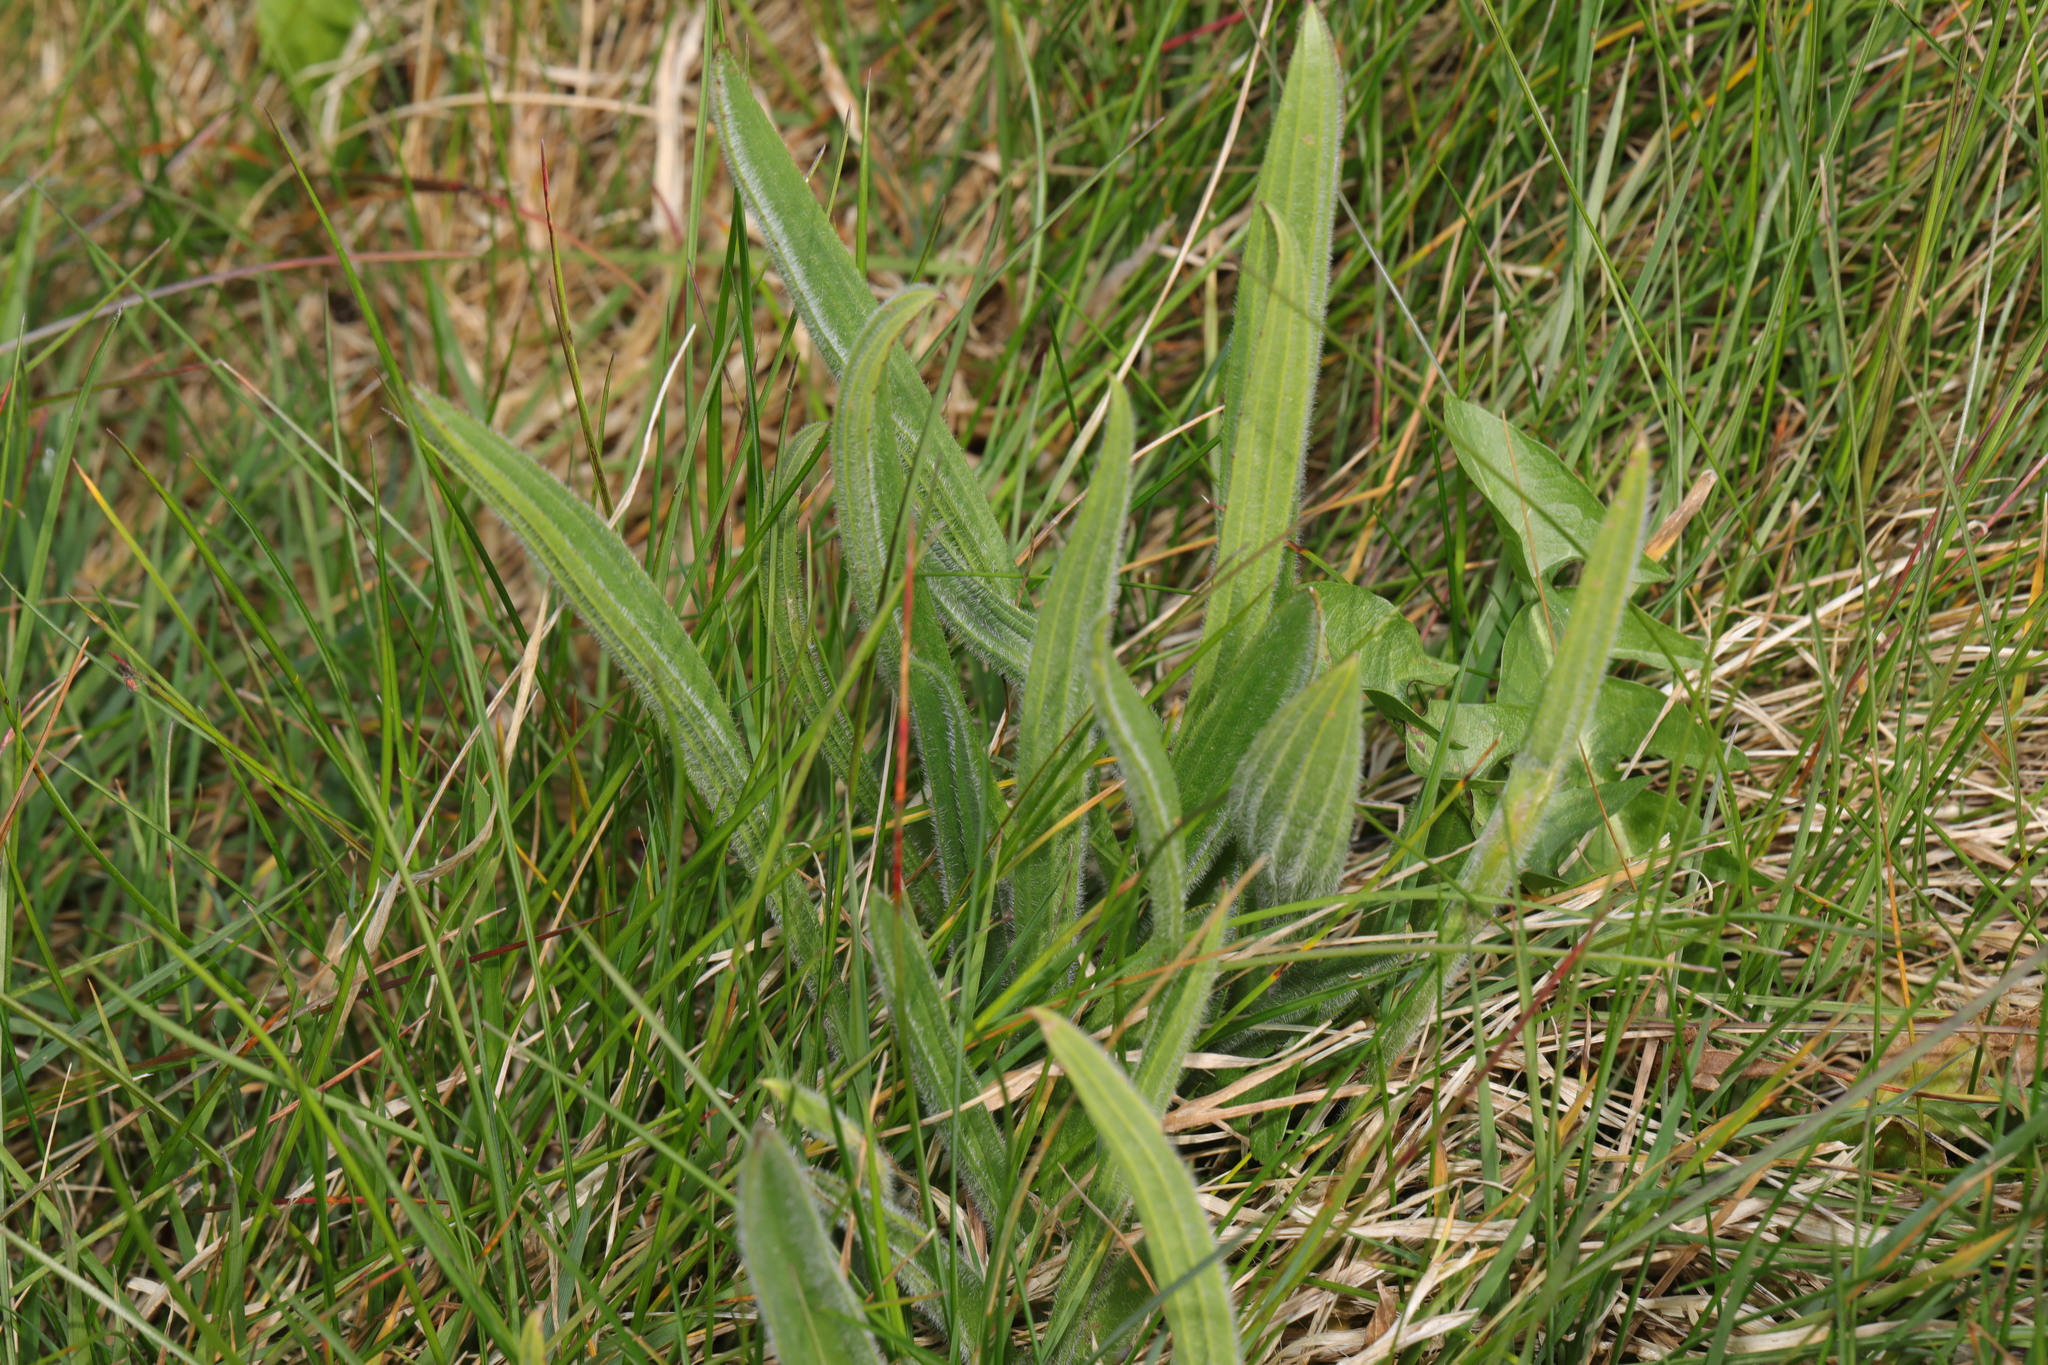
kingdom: Plantae
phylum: Tracheophyta
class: Magnoliopsida
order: Lamiales
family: Plantaginaceae
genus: Plantago
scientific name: Plantago lanceolata
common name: Ribwort plantain
